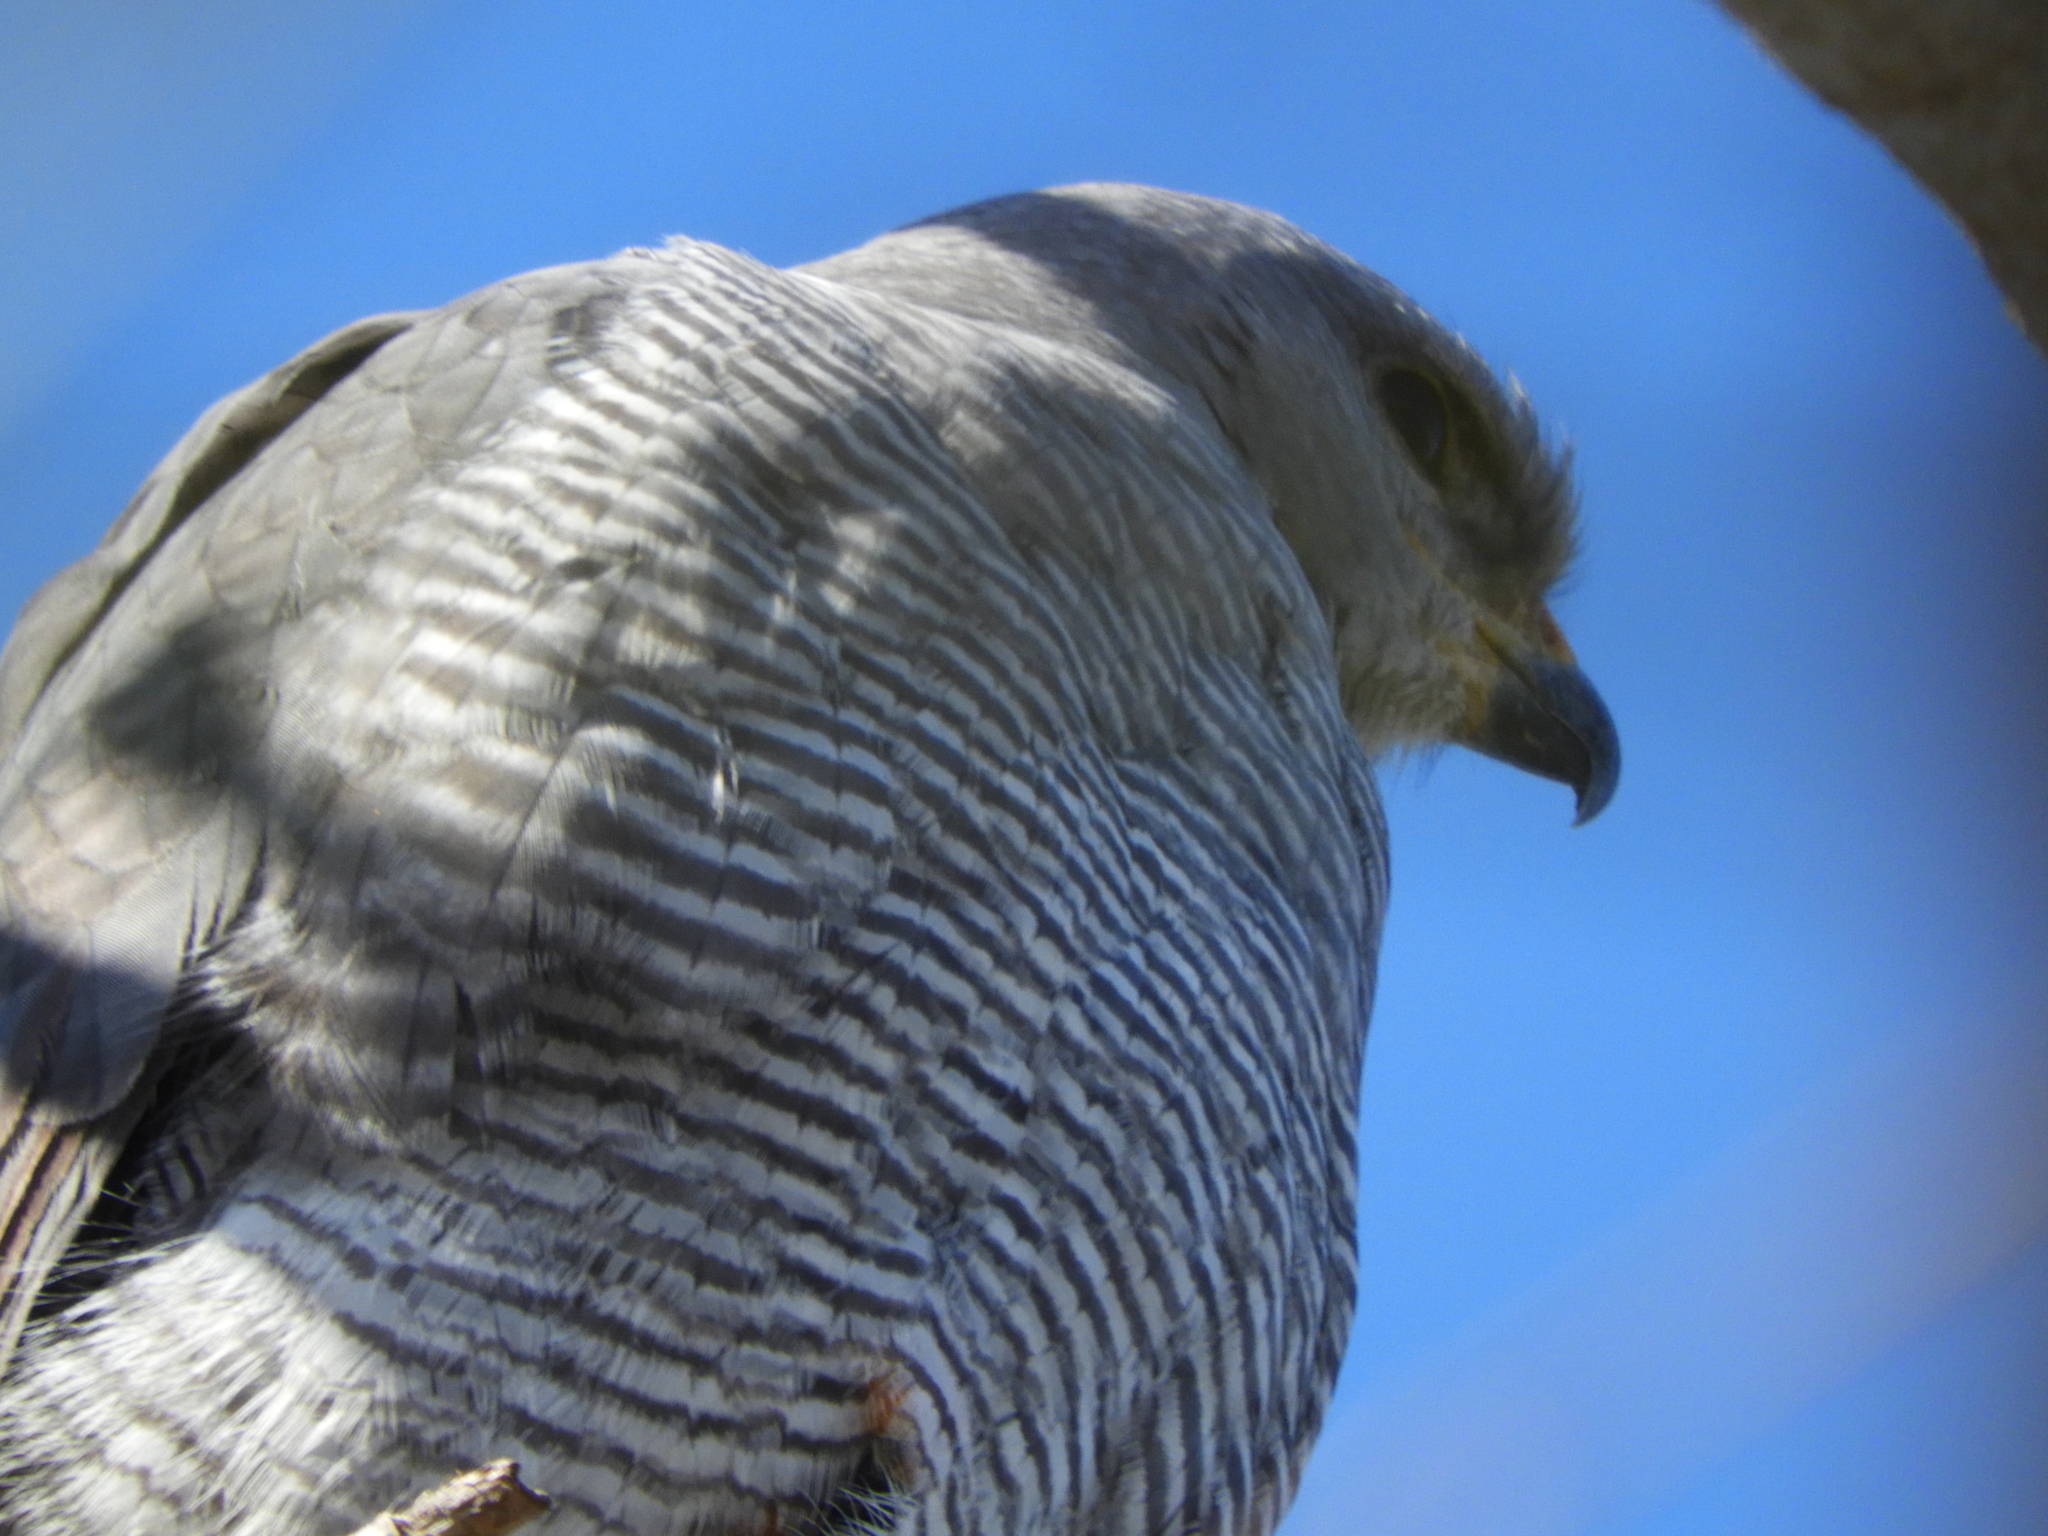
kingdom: Animalia
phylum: Chordata
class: Aves
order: Accipitriformes
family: Accipitridae
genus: Buteo
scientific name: Buteo nitidus
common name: Grey-lined hawk
